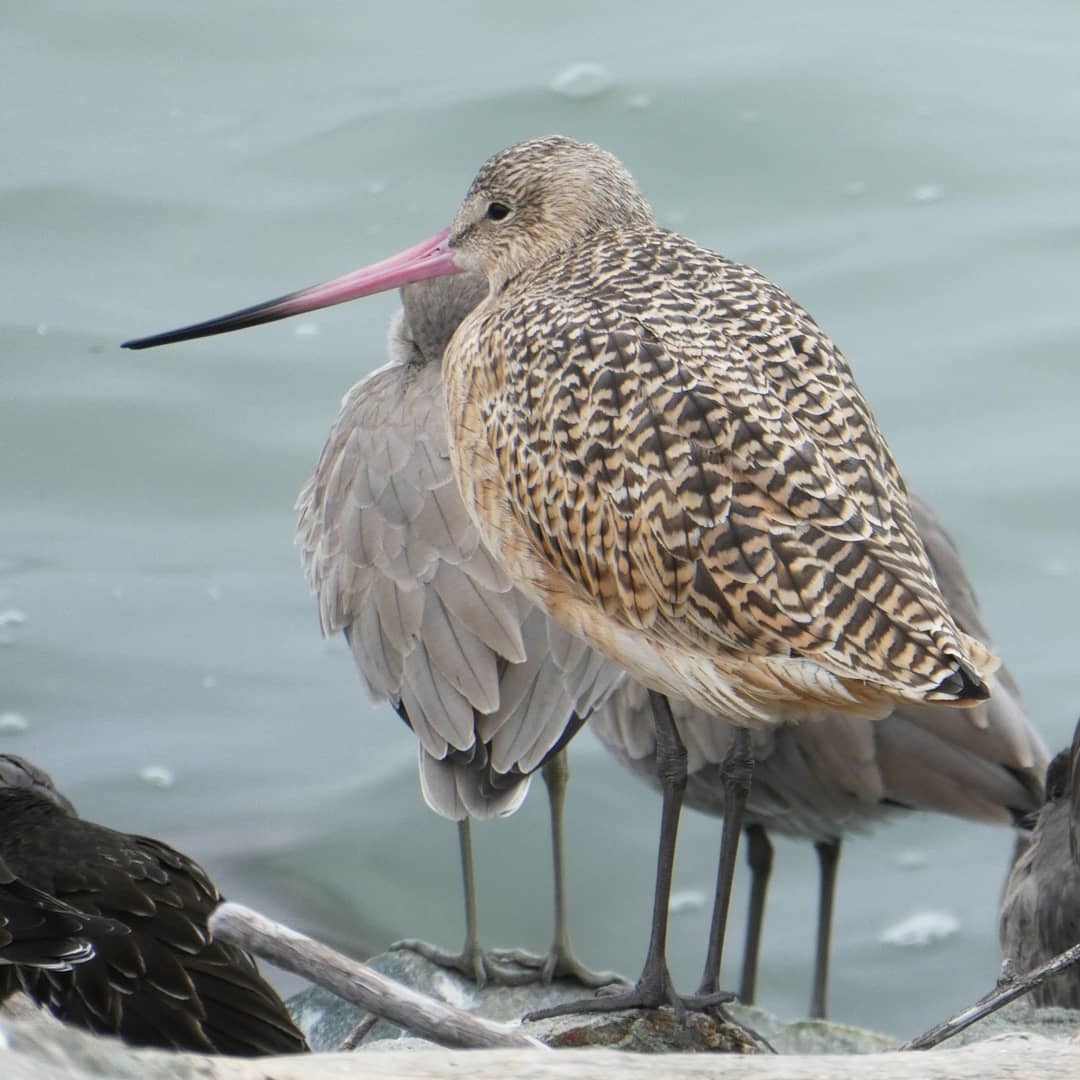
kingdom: Animalia
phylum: Chordata
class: Aves
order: Charadriiformes
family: Scolopacidae
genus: Limosa
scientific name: Limosa fedoa
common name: Marbled godwit
